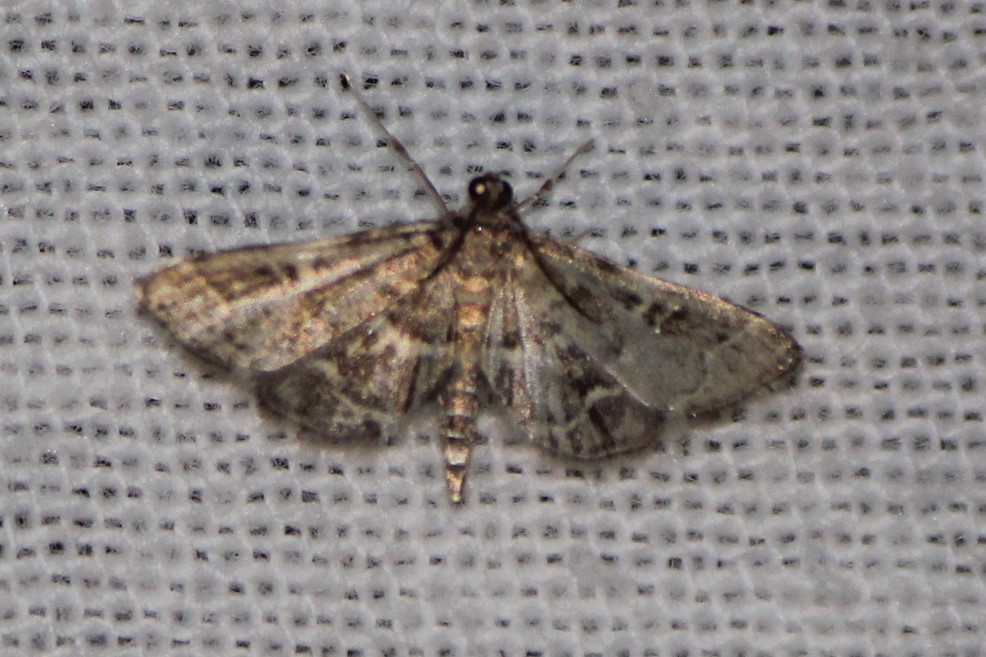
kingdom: Animalia
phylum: Arthropoda
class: Insecta
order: Lepidoptera
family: Crambidae
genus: Anageshna
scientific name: Anageshna primordialis
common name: Yellow-spotted webworm moth
